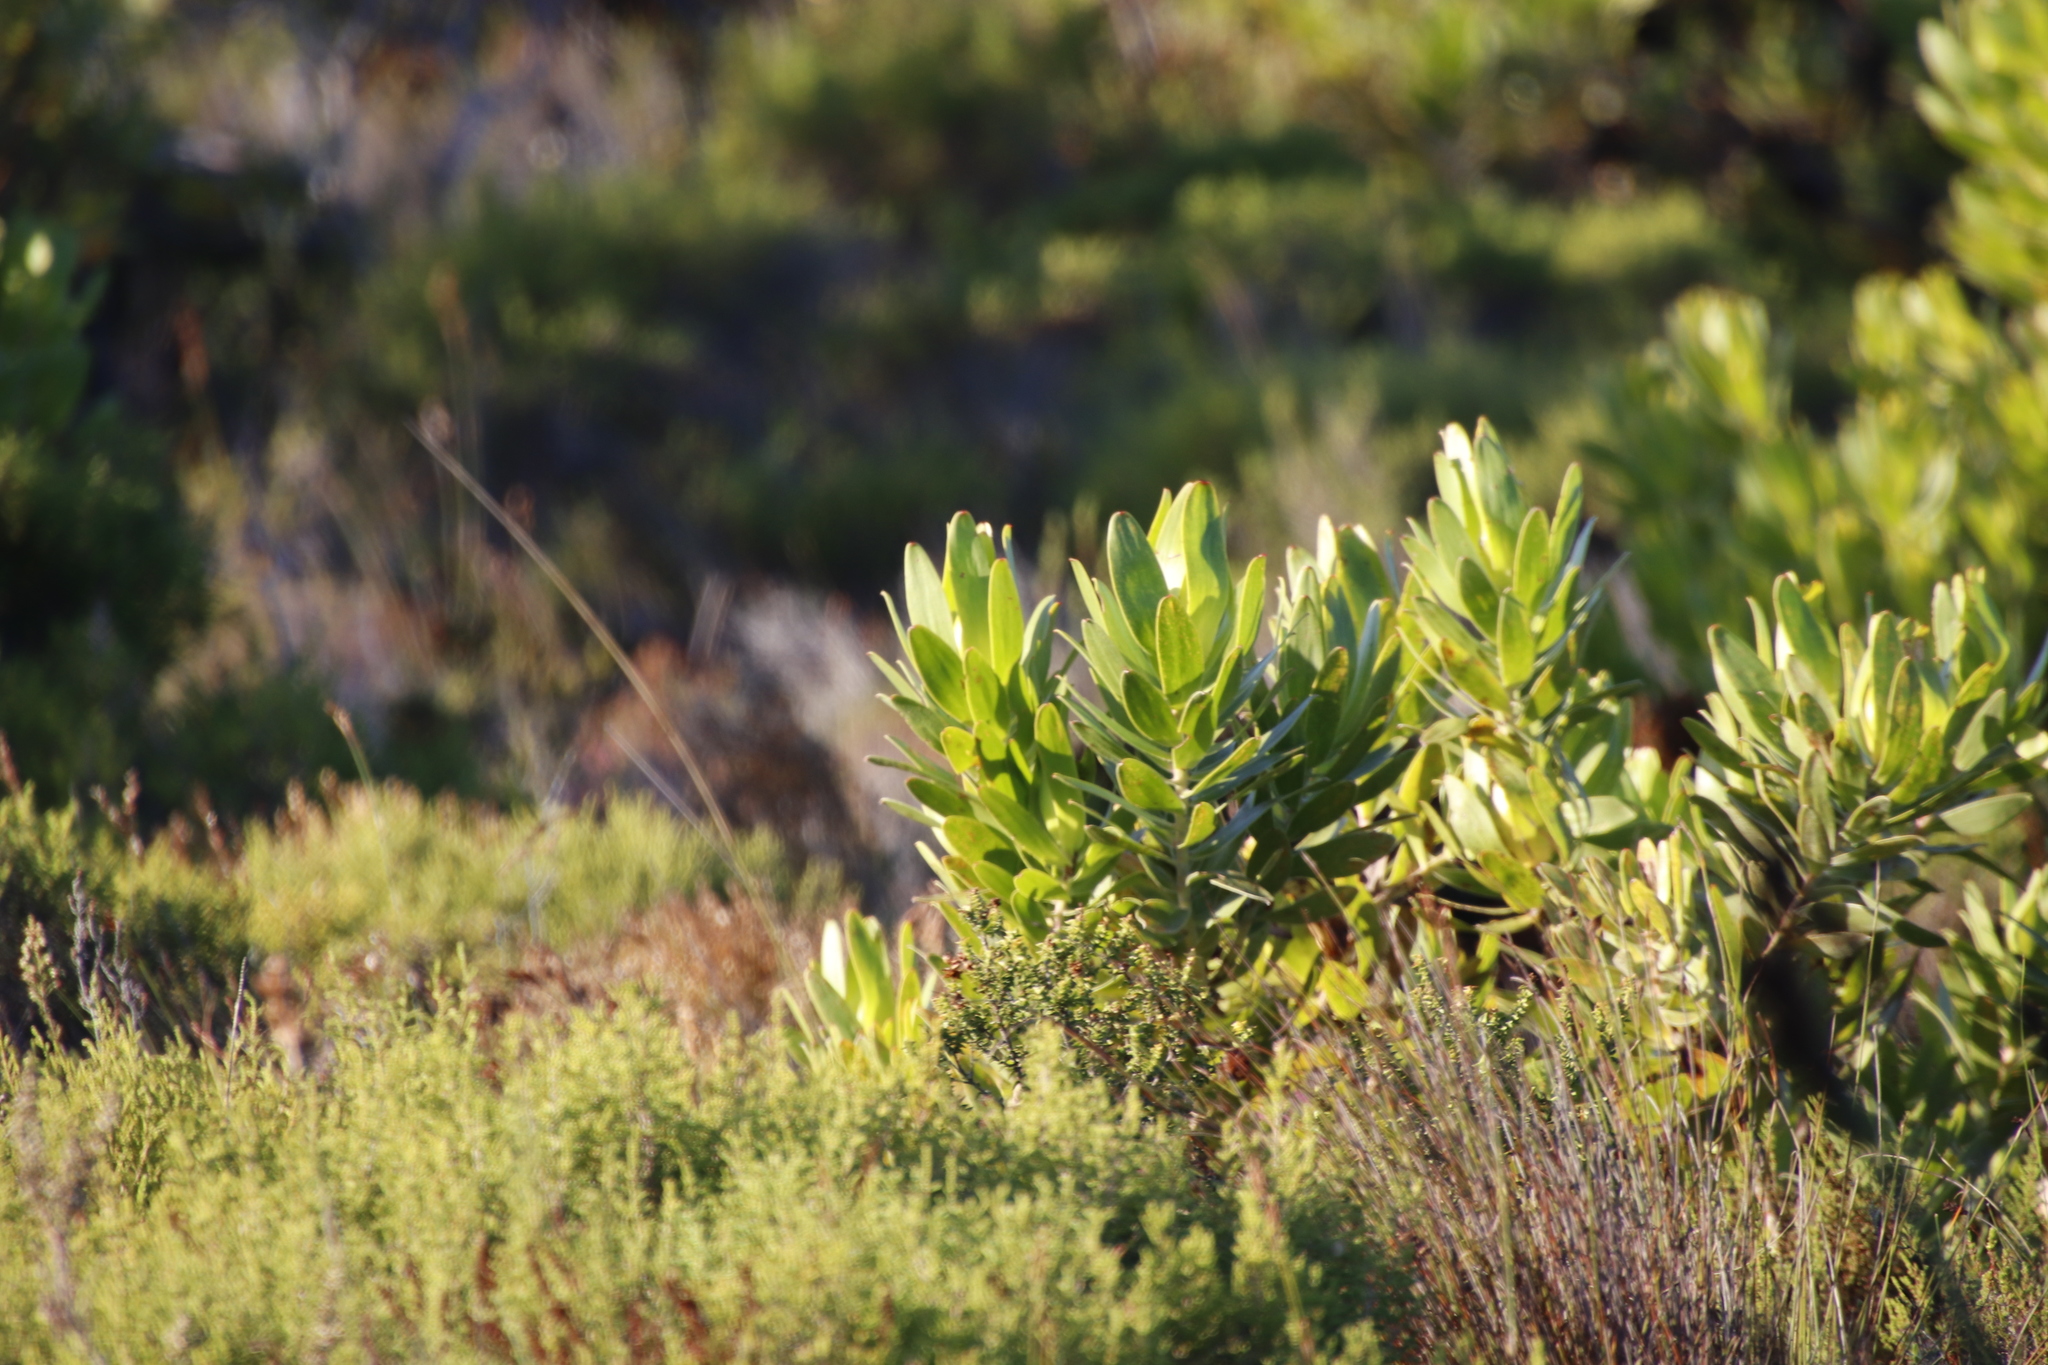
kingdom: Plantae
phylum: Tracheophyta
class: Magnoliopsida
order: Proteales
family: Proteaceae
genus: Leucadendron
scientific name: Leucadendron laureolum
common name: Golden sunshinebush
